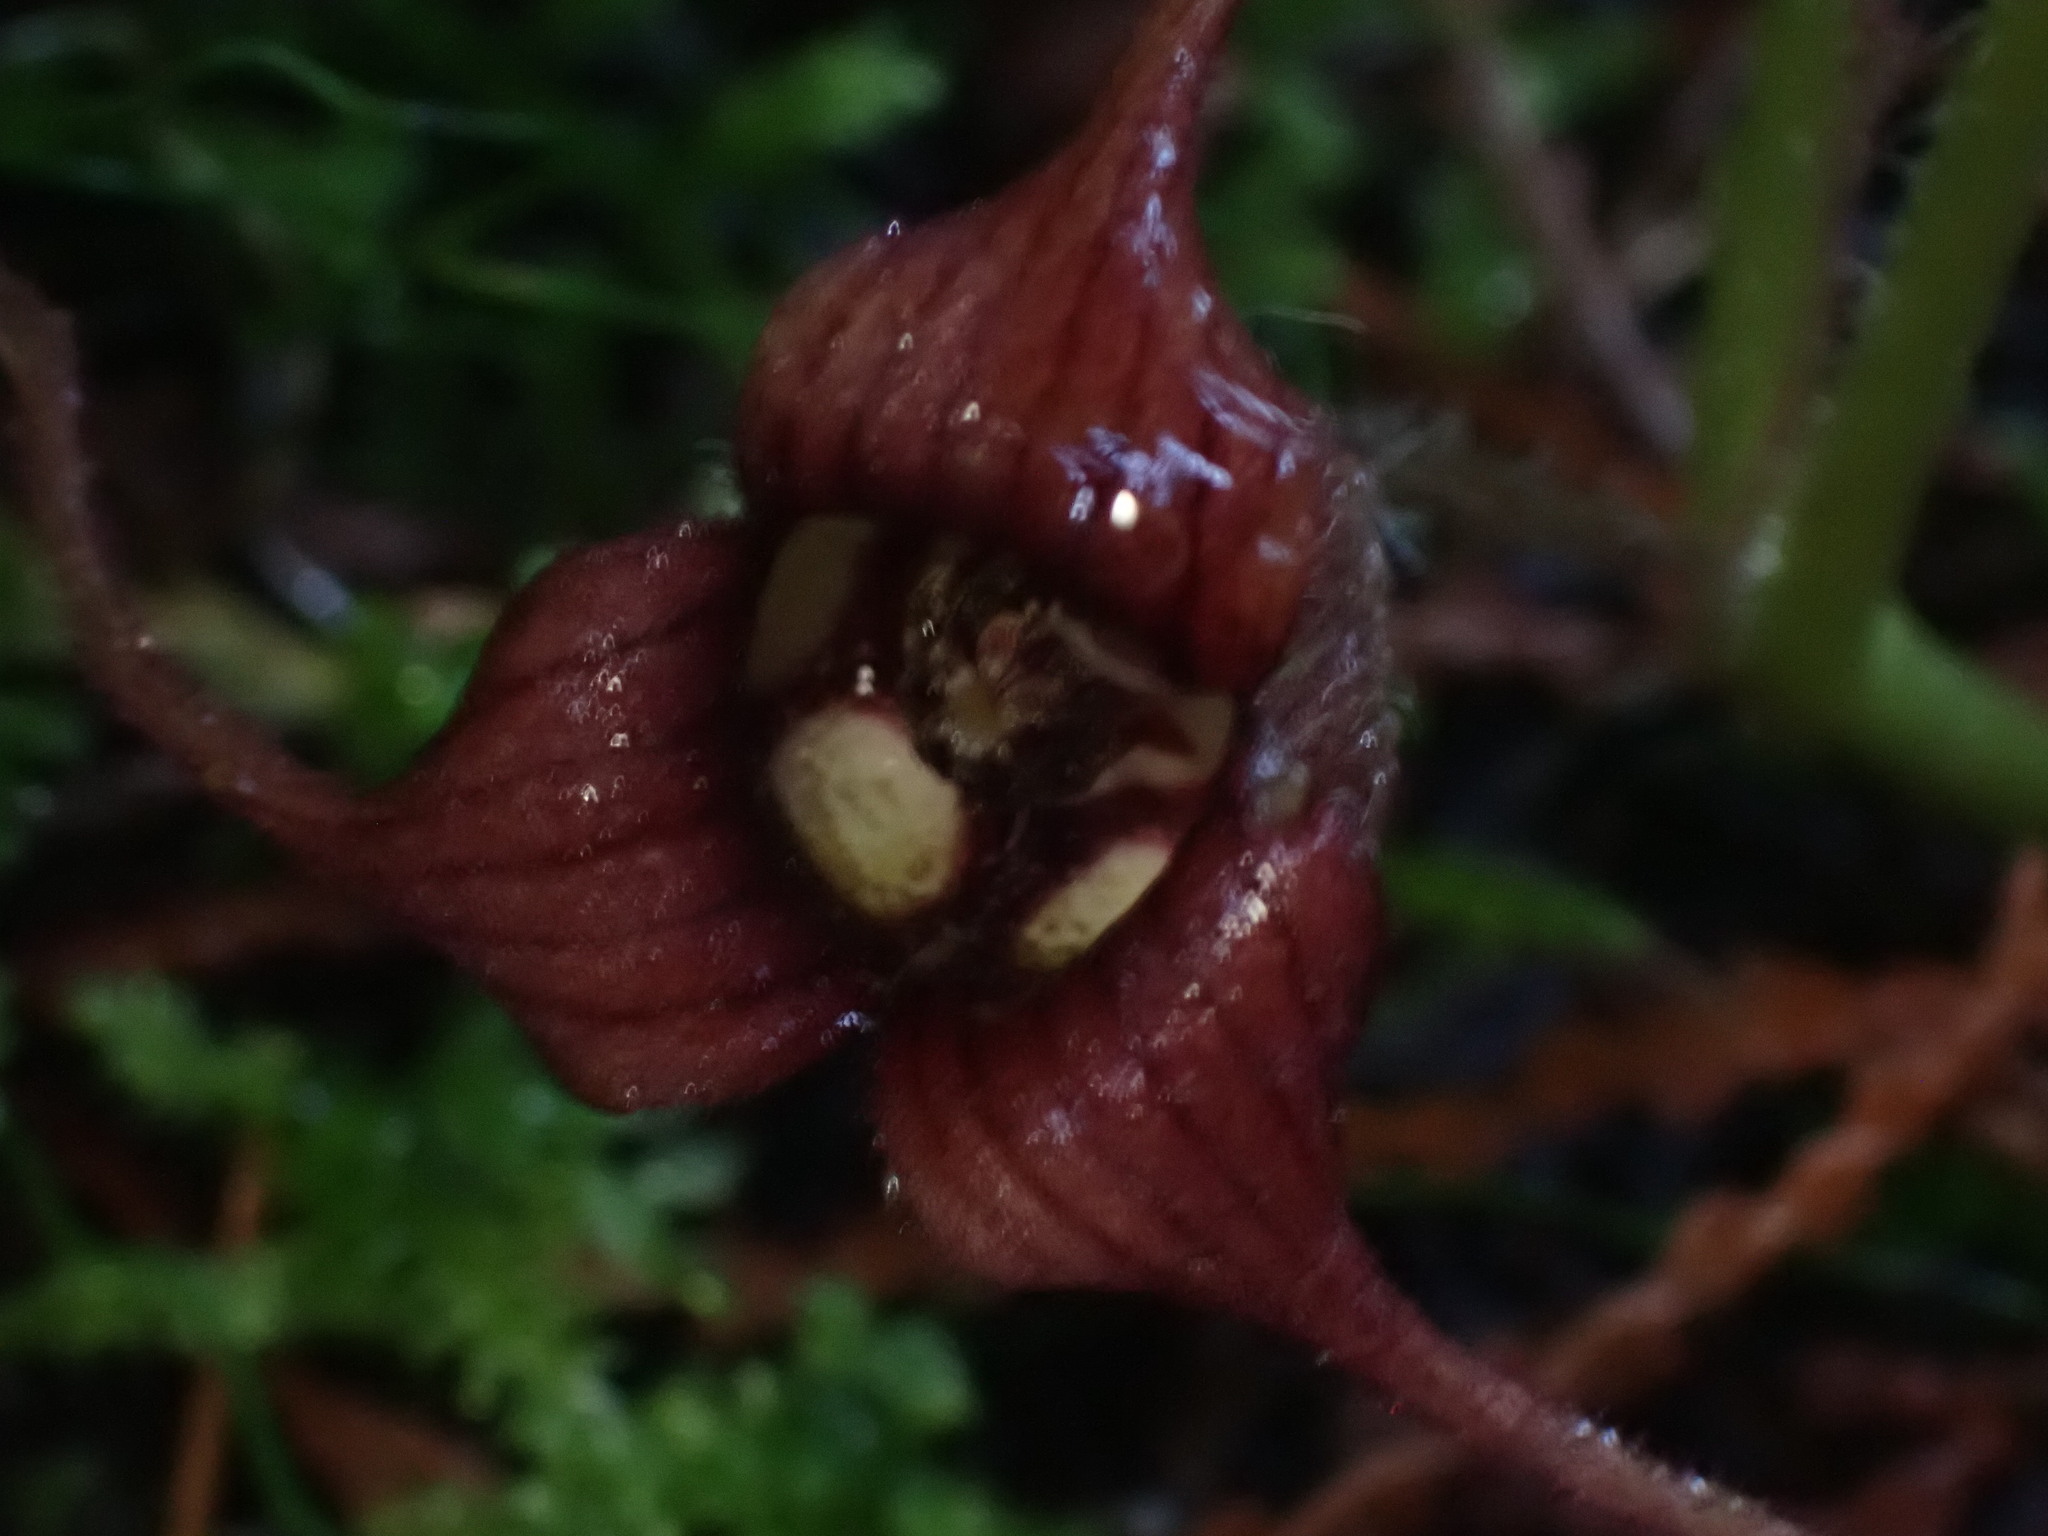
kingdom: Plantae
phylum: Tracheophyta
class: Magnoliopsida
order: Piperales
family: Aristolochiaceae
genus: Asarum
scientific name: Asarum caudatum
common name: Wild ginger
